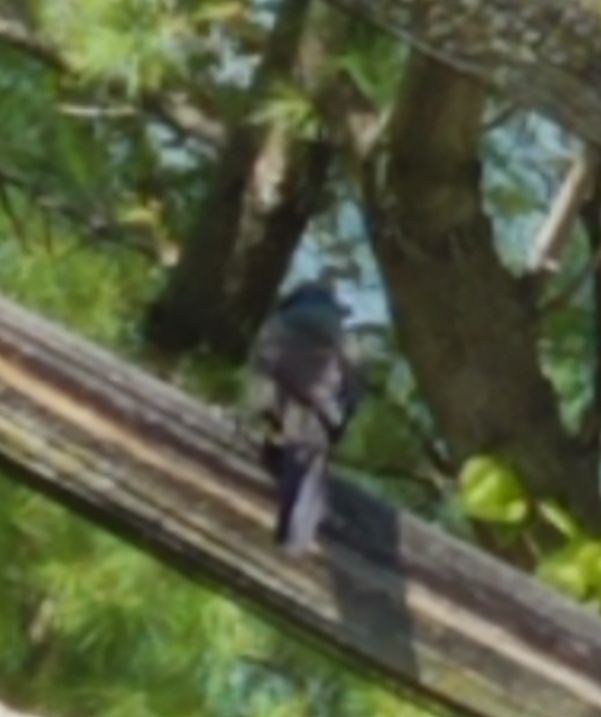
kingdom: Animalia
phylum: Chordata
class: Aves
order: Passeriformes
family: Icteridae
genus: Quiscalus
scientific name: Quiscalus quiscula
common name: Common grackle
